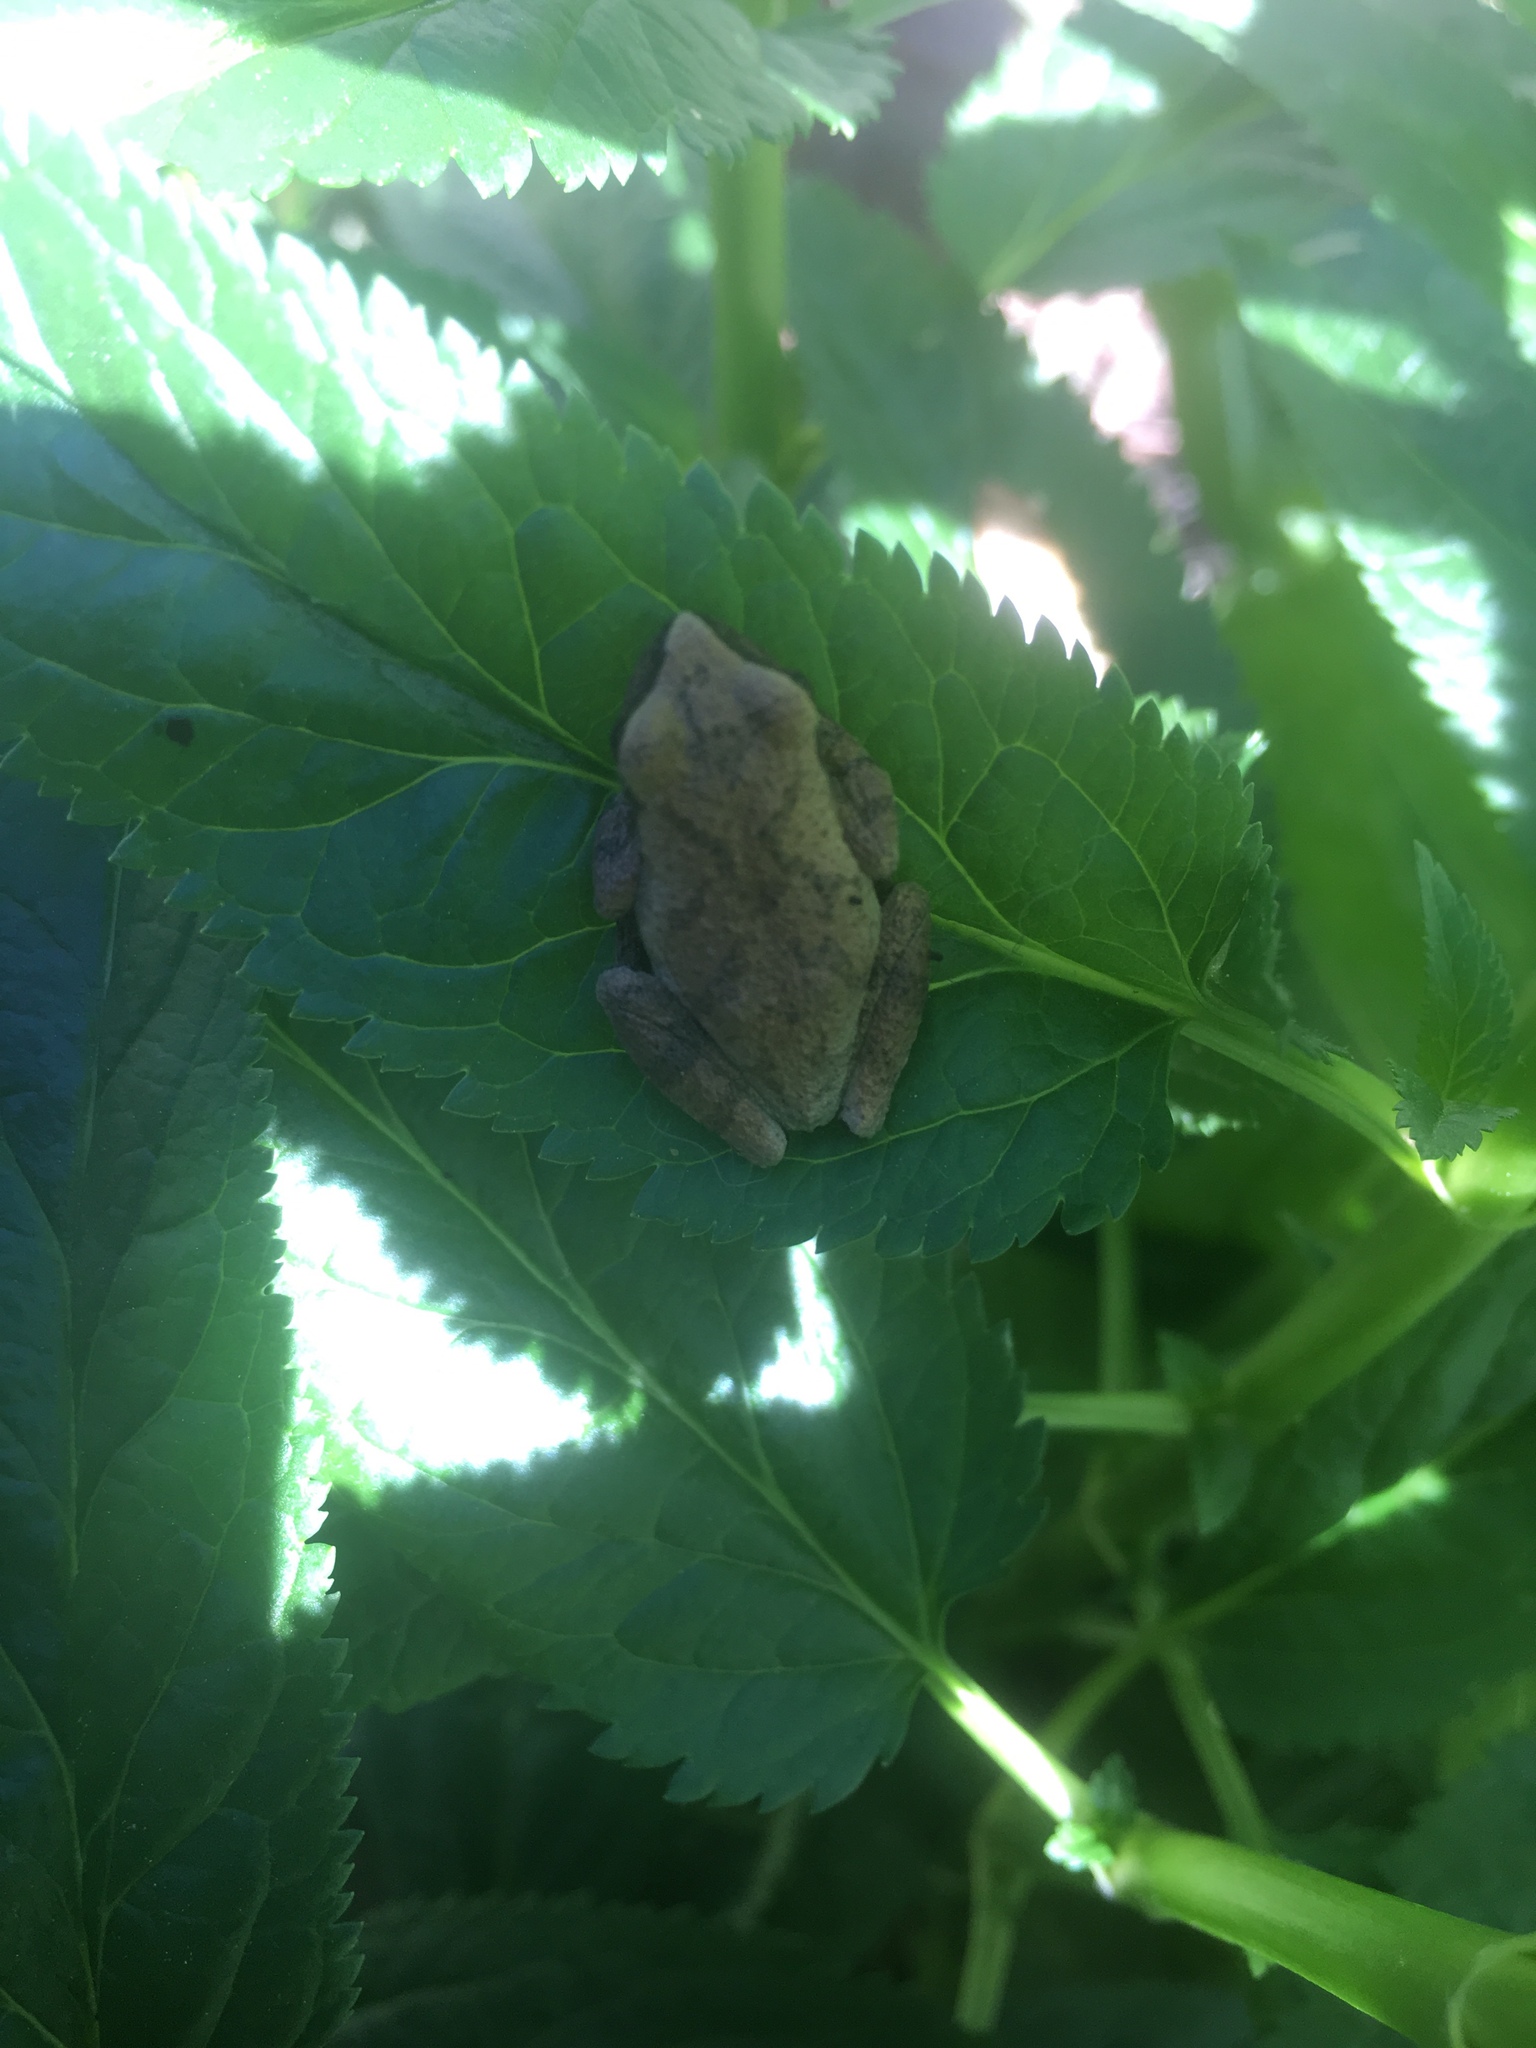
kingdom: Animalia
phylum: Chordata
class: Amphibia
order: Anura
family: Hylidae
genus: Pseudacris
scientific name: Pseudacris crucifer
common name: Spring peeper
